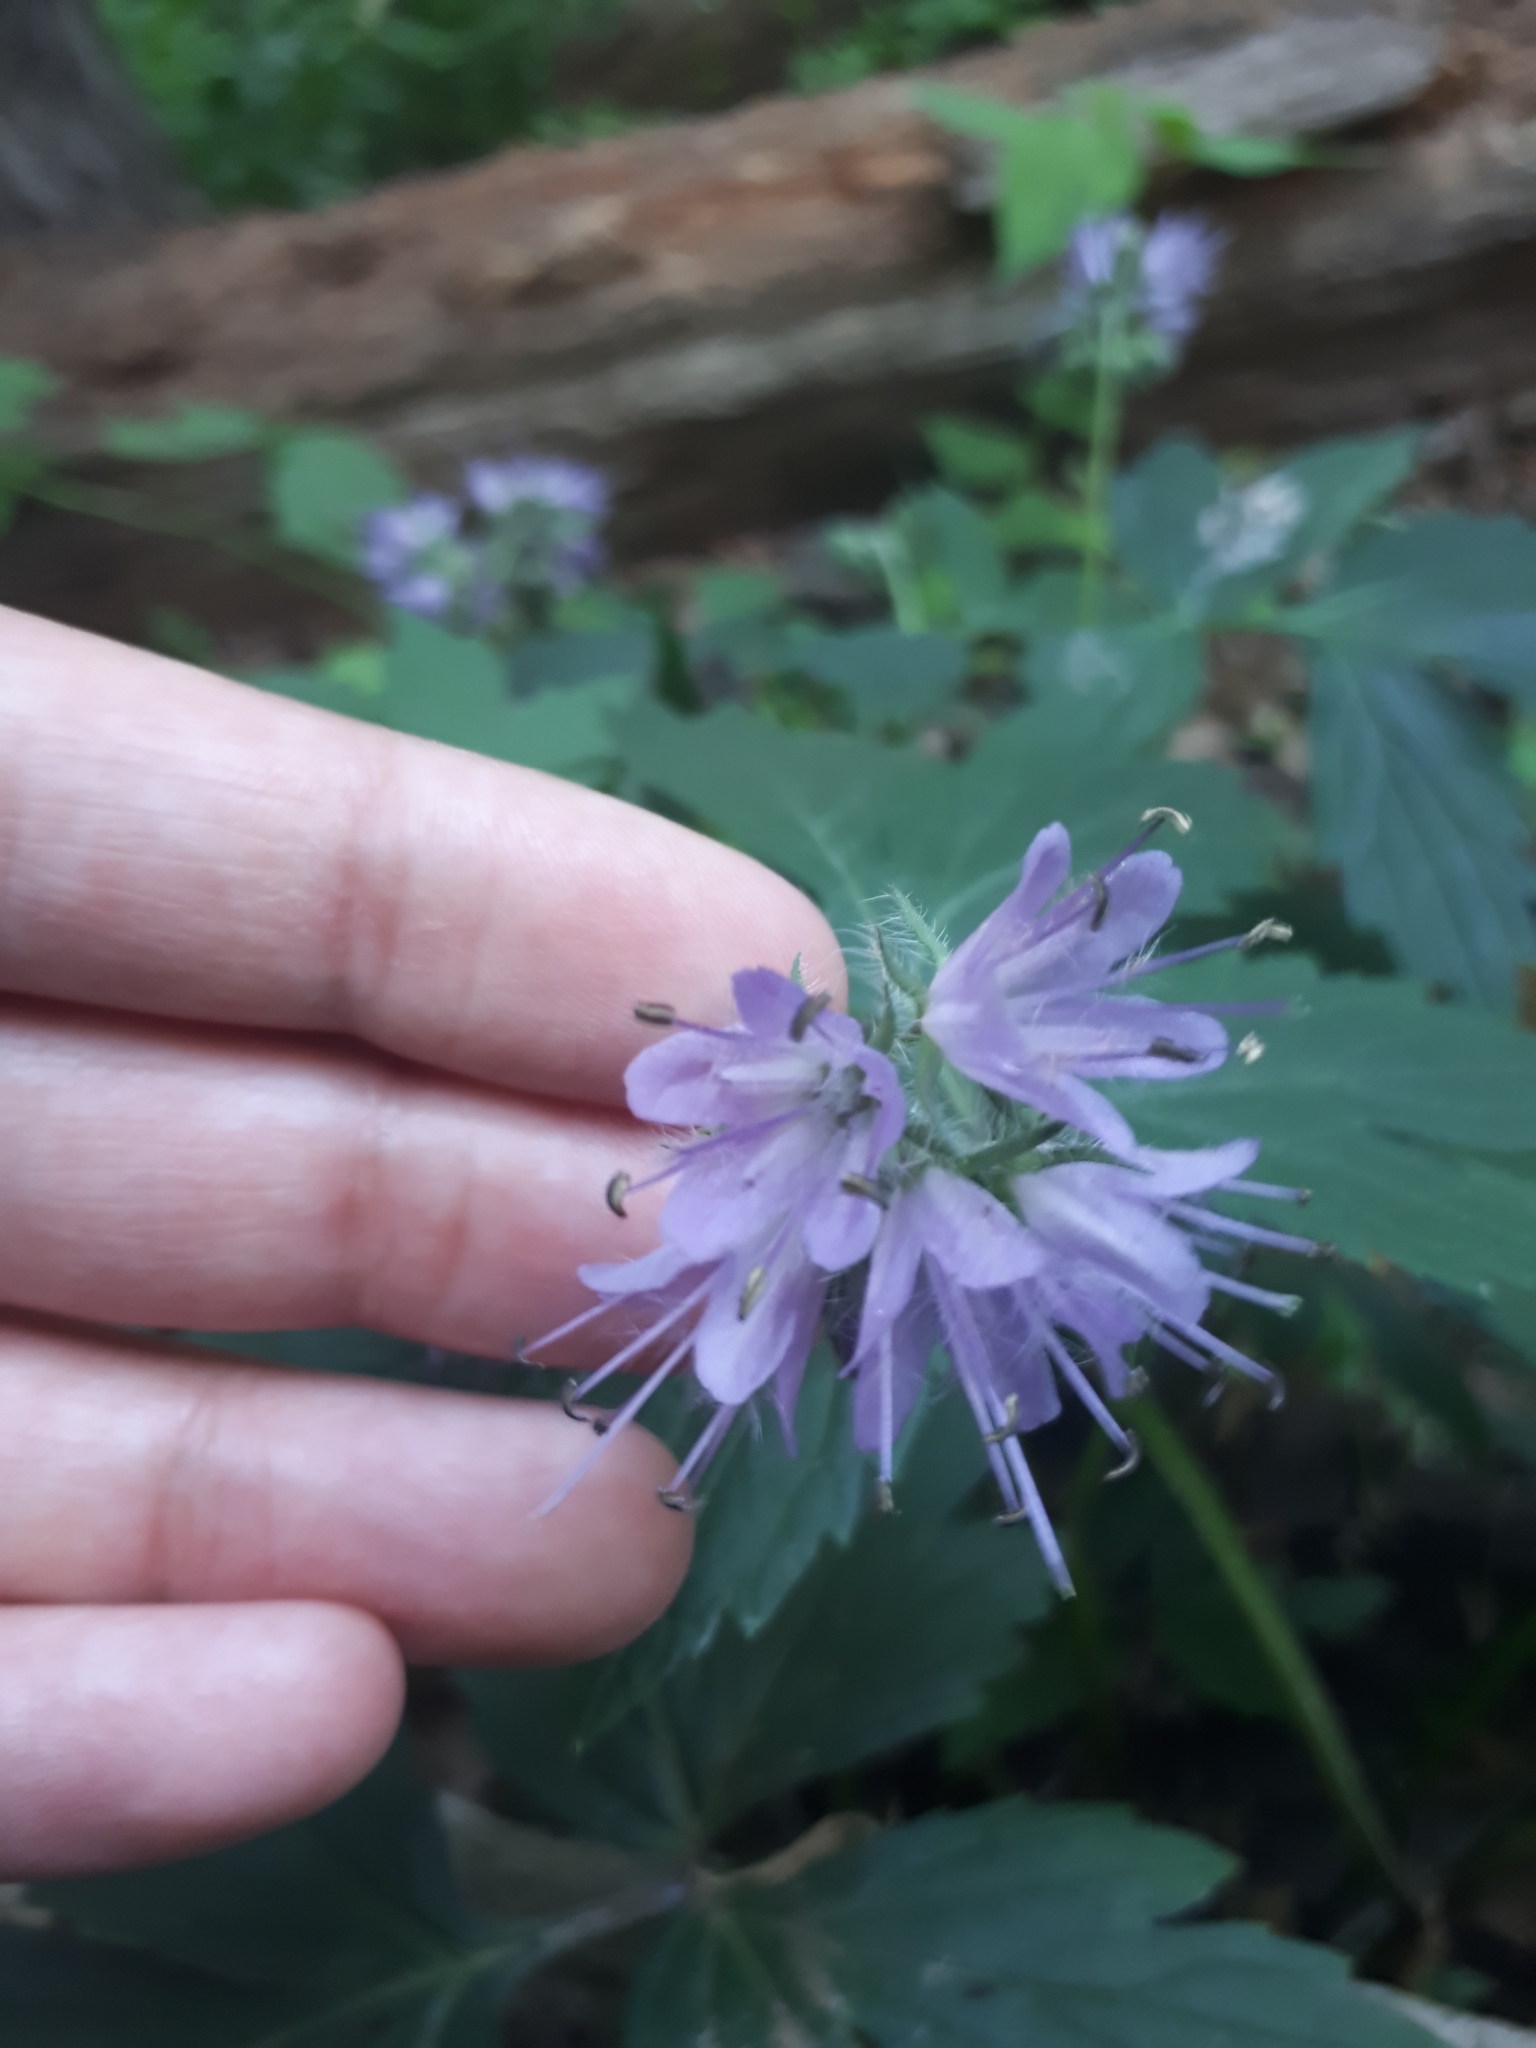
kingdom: Plantae
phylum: Tracheophyta
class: Magnoliopsida
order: Boraginales
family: Hydrophyllaceae
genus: Hydrophyllum
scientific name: Hydrophyllum virginianum
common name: Virginia waterleaf
